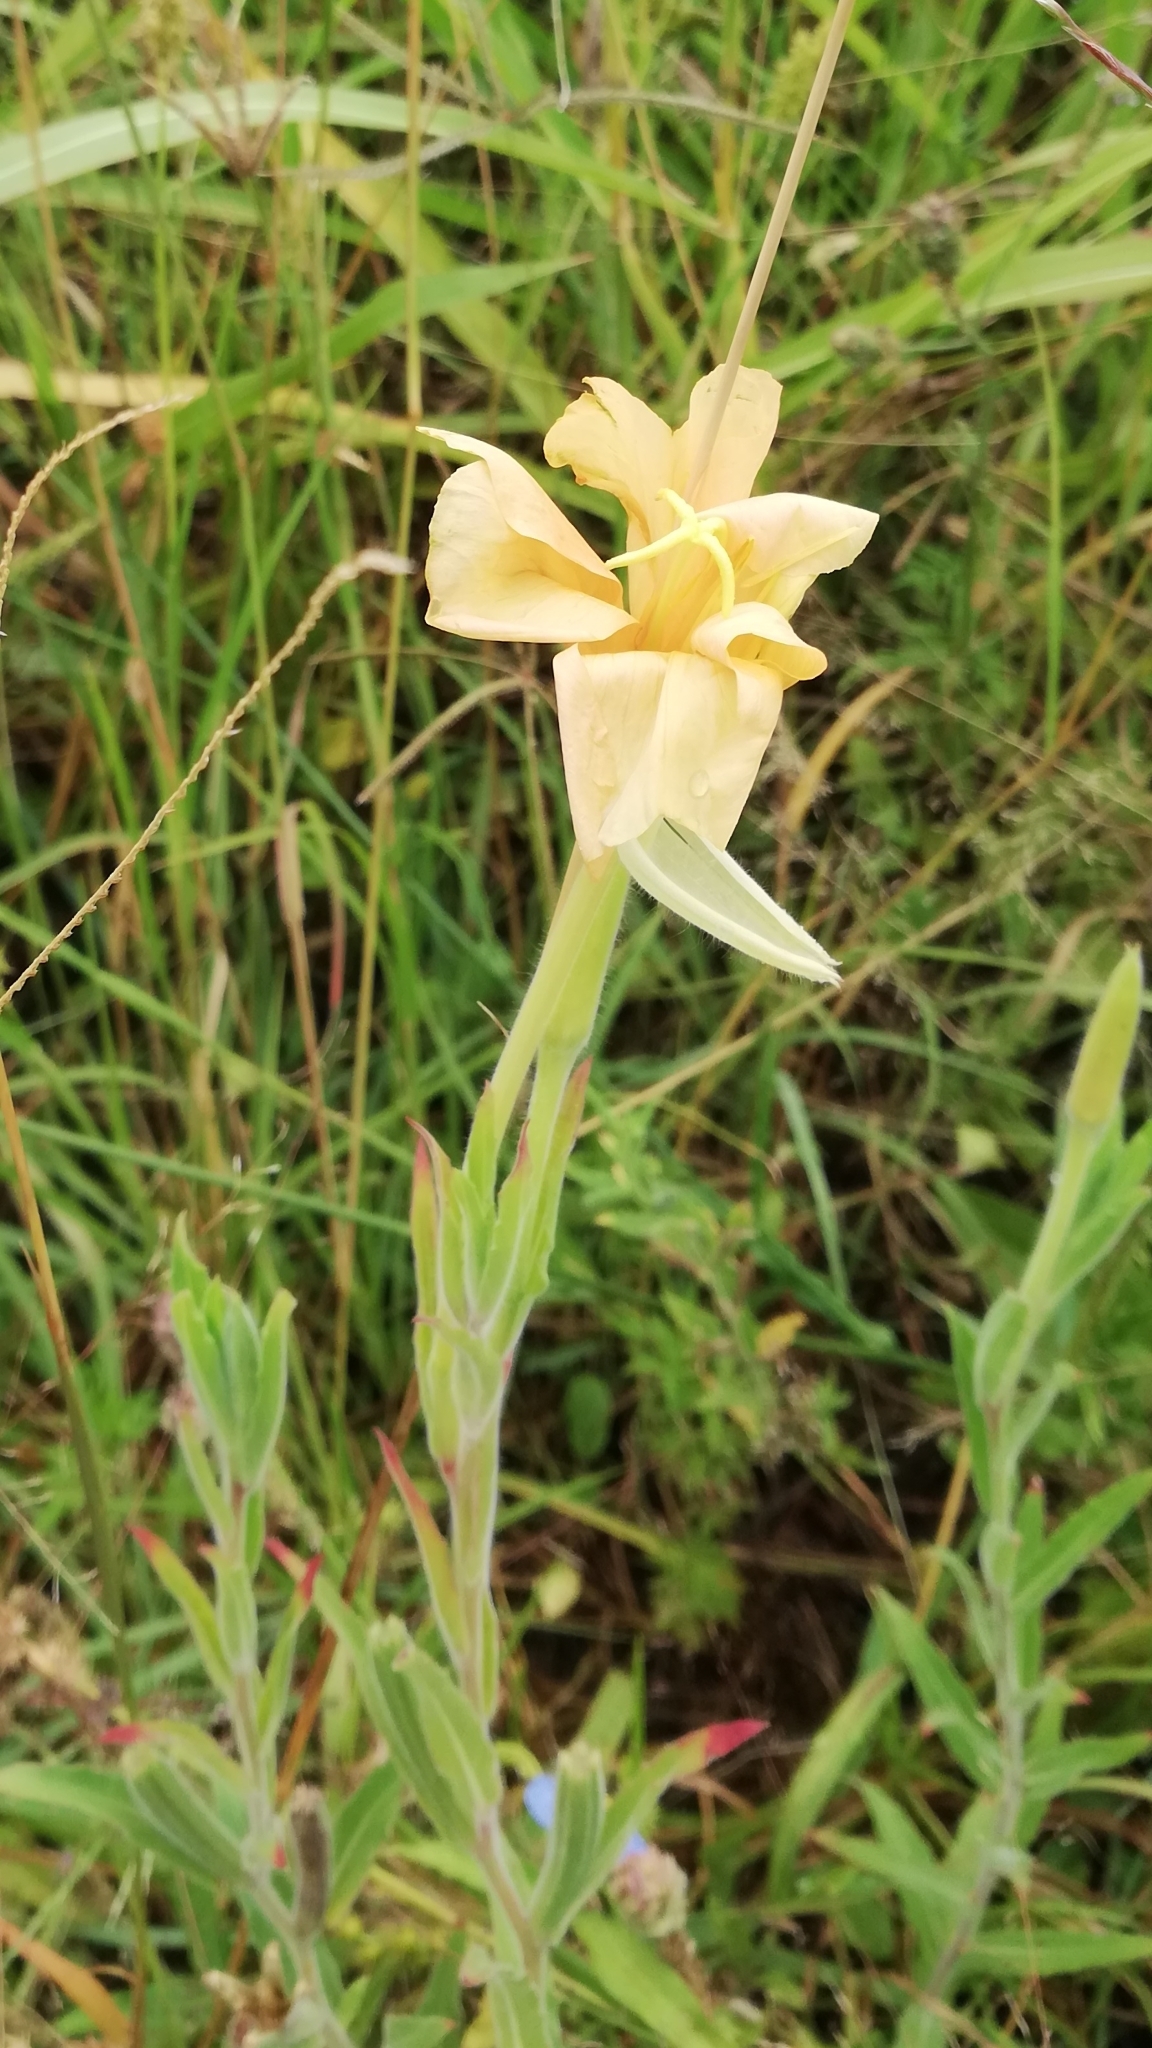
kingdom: Plantae
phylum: Tracheophyta
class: Magnoliopsida
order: Myrtales
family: Onagraceae
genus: Oenothera
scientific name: Oenothera affinis
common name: Longflower evening primrose
